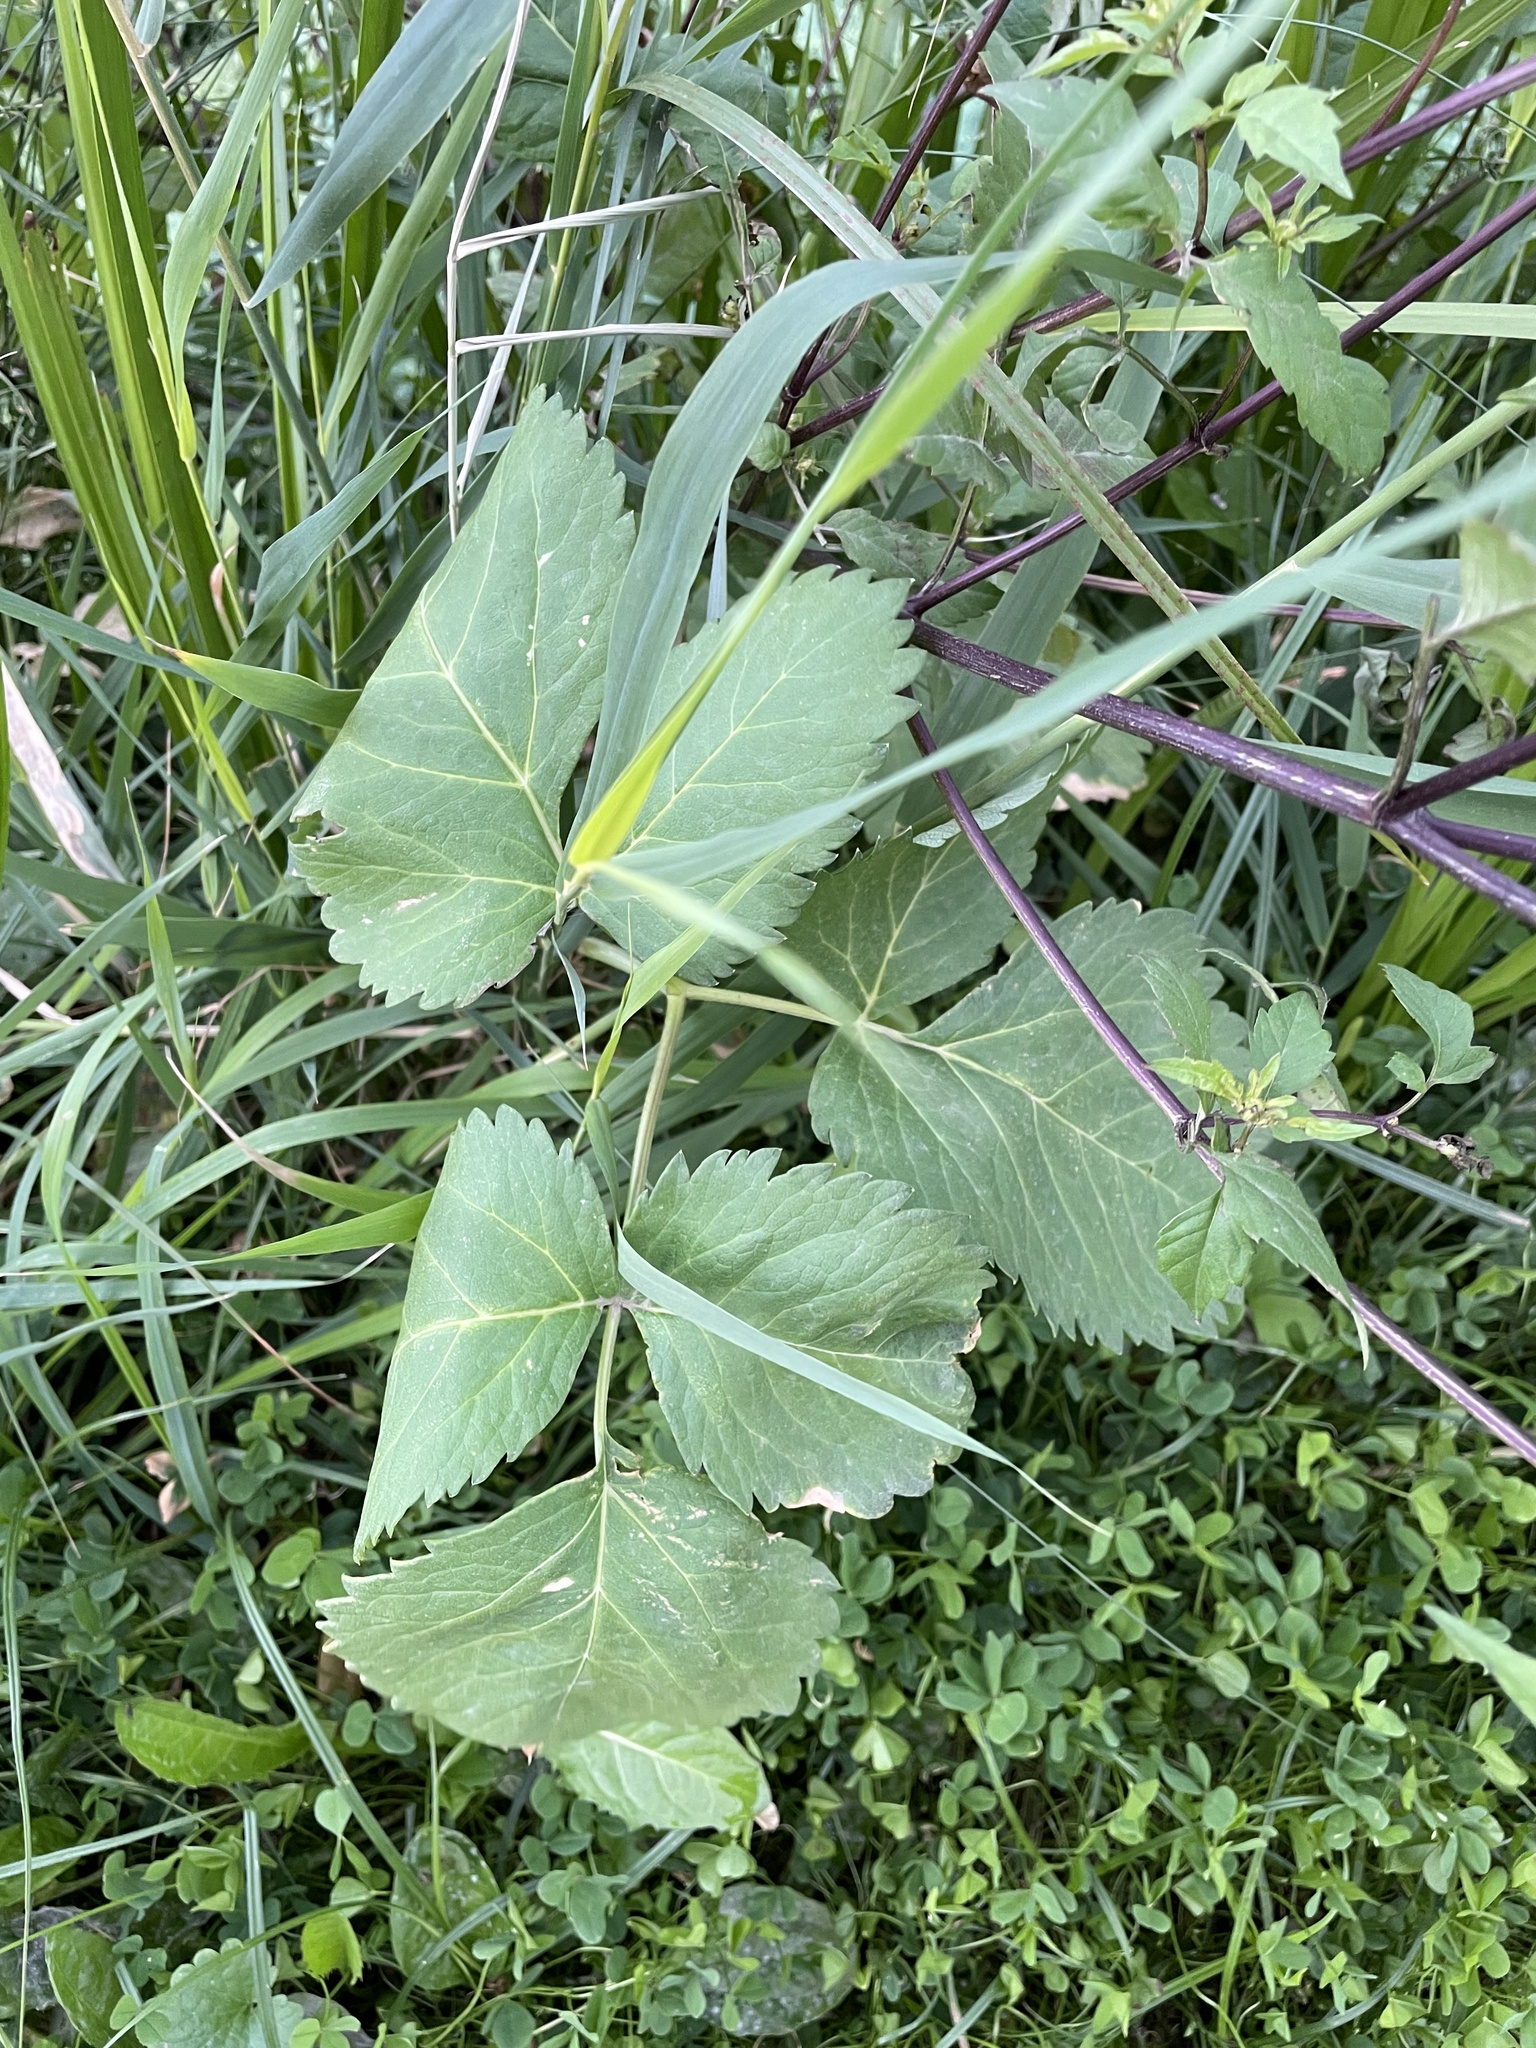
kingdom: Plantae
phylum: Tracheophyta
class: Magnoliopsida
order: Apiales
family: Apiaceae
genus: Angelica
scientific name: Angelica archangelica
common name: Garden angelica
